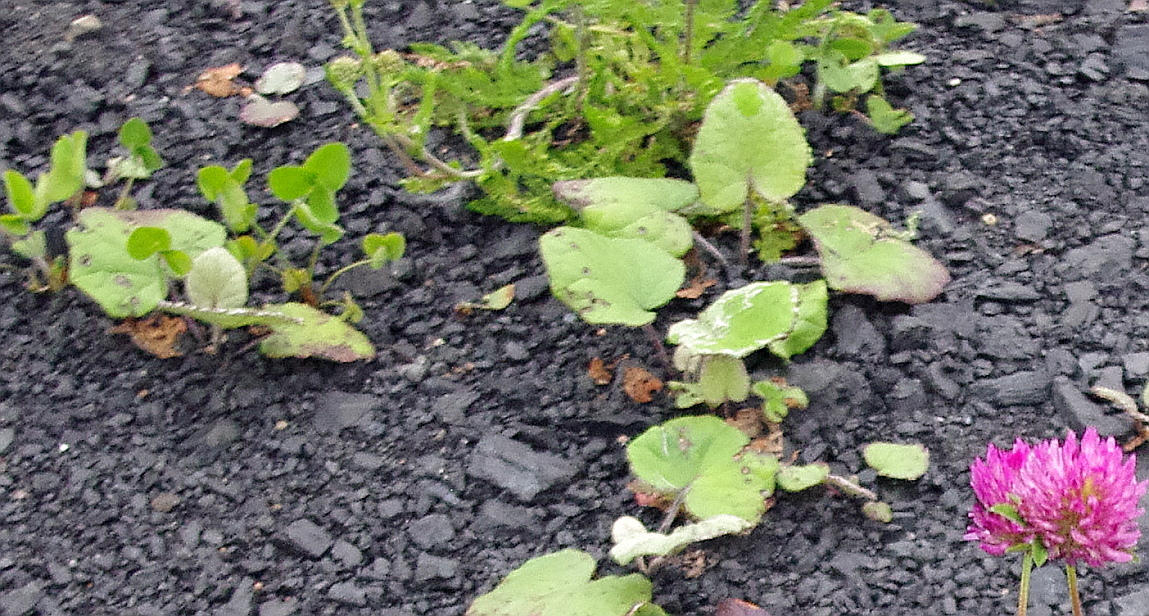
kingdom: Plantae
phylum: Tracheophyta
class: Magnoliopsida
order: Asterales
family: Asteraceae
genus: Tussilago
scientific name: Tussilago farfara
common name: Coltsfoot
